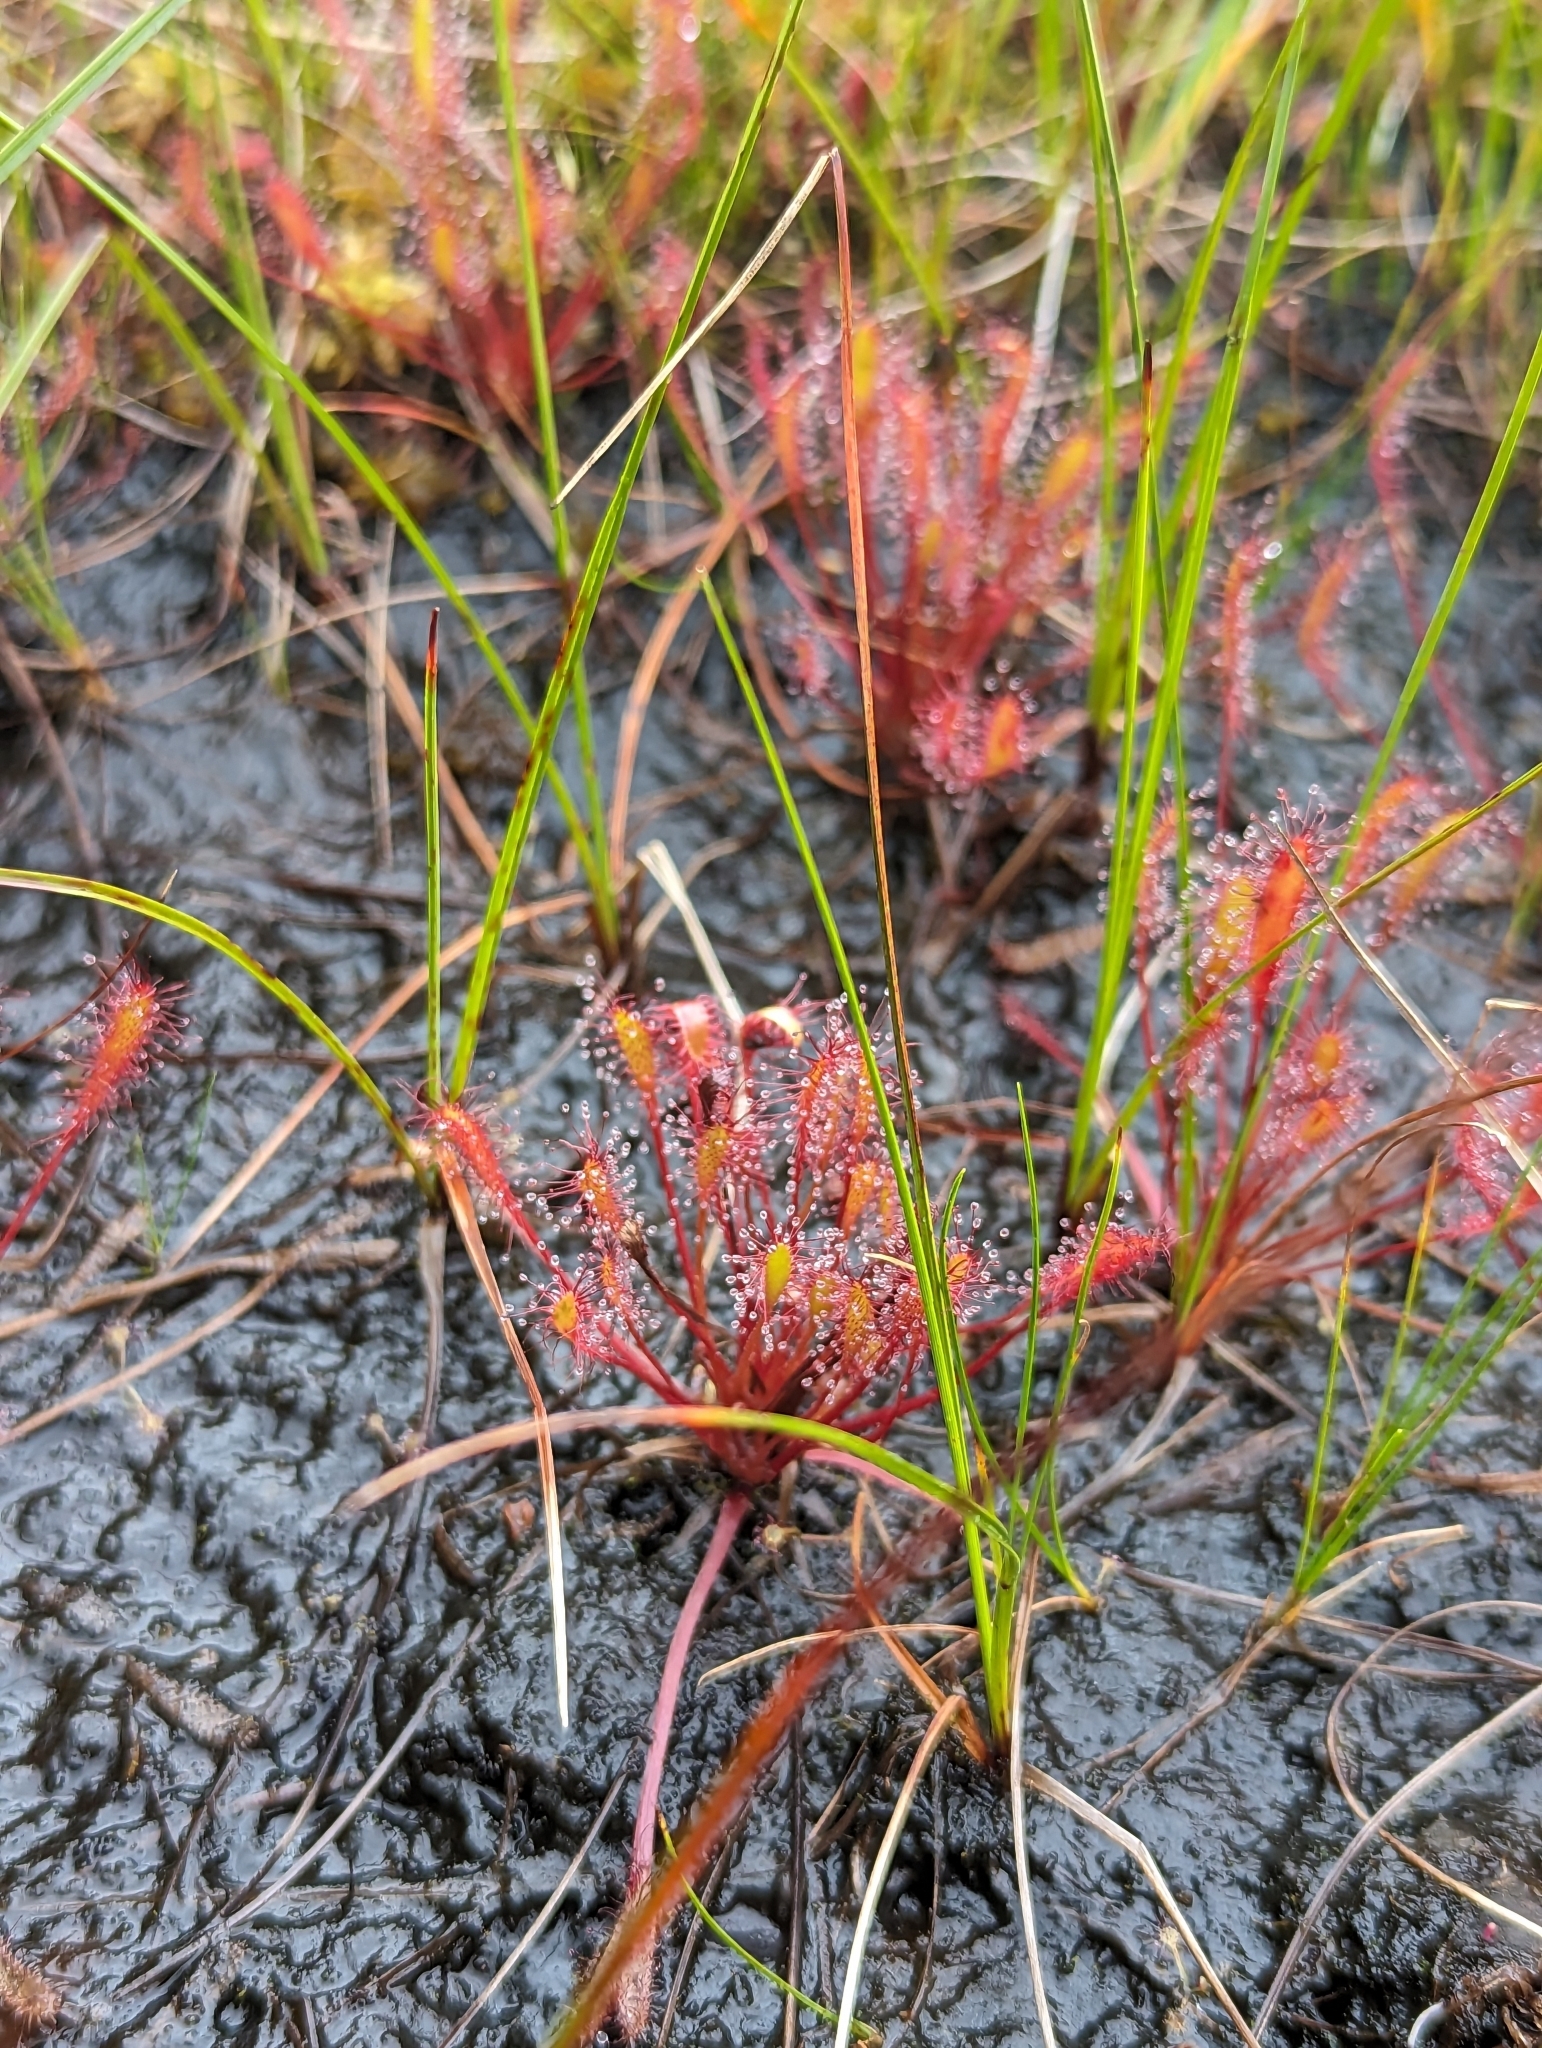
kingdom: Plantae
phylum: Tracheophyta
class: Magnoliopsida
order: Caryophyllales
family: Droseraceae
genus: Drosera
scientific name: Drosera anglica
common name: Great sundew
